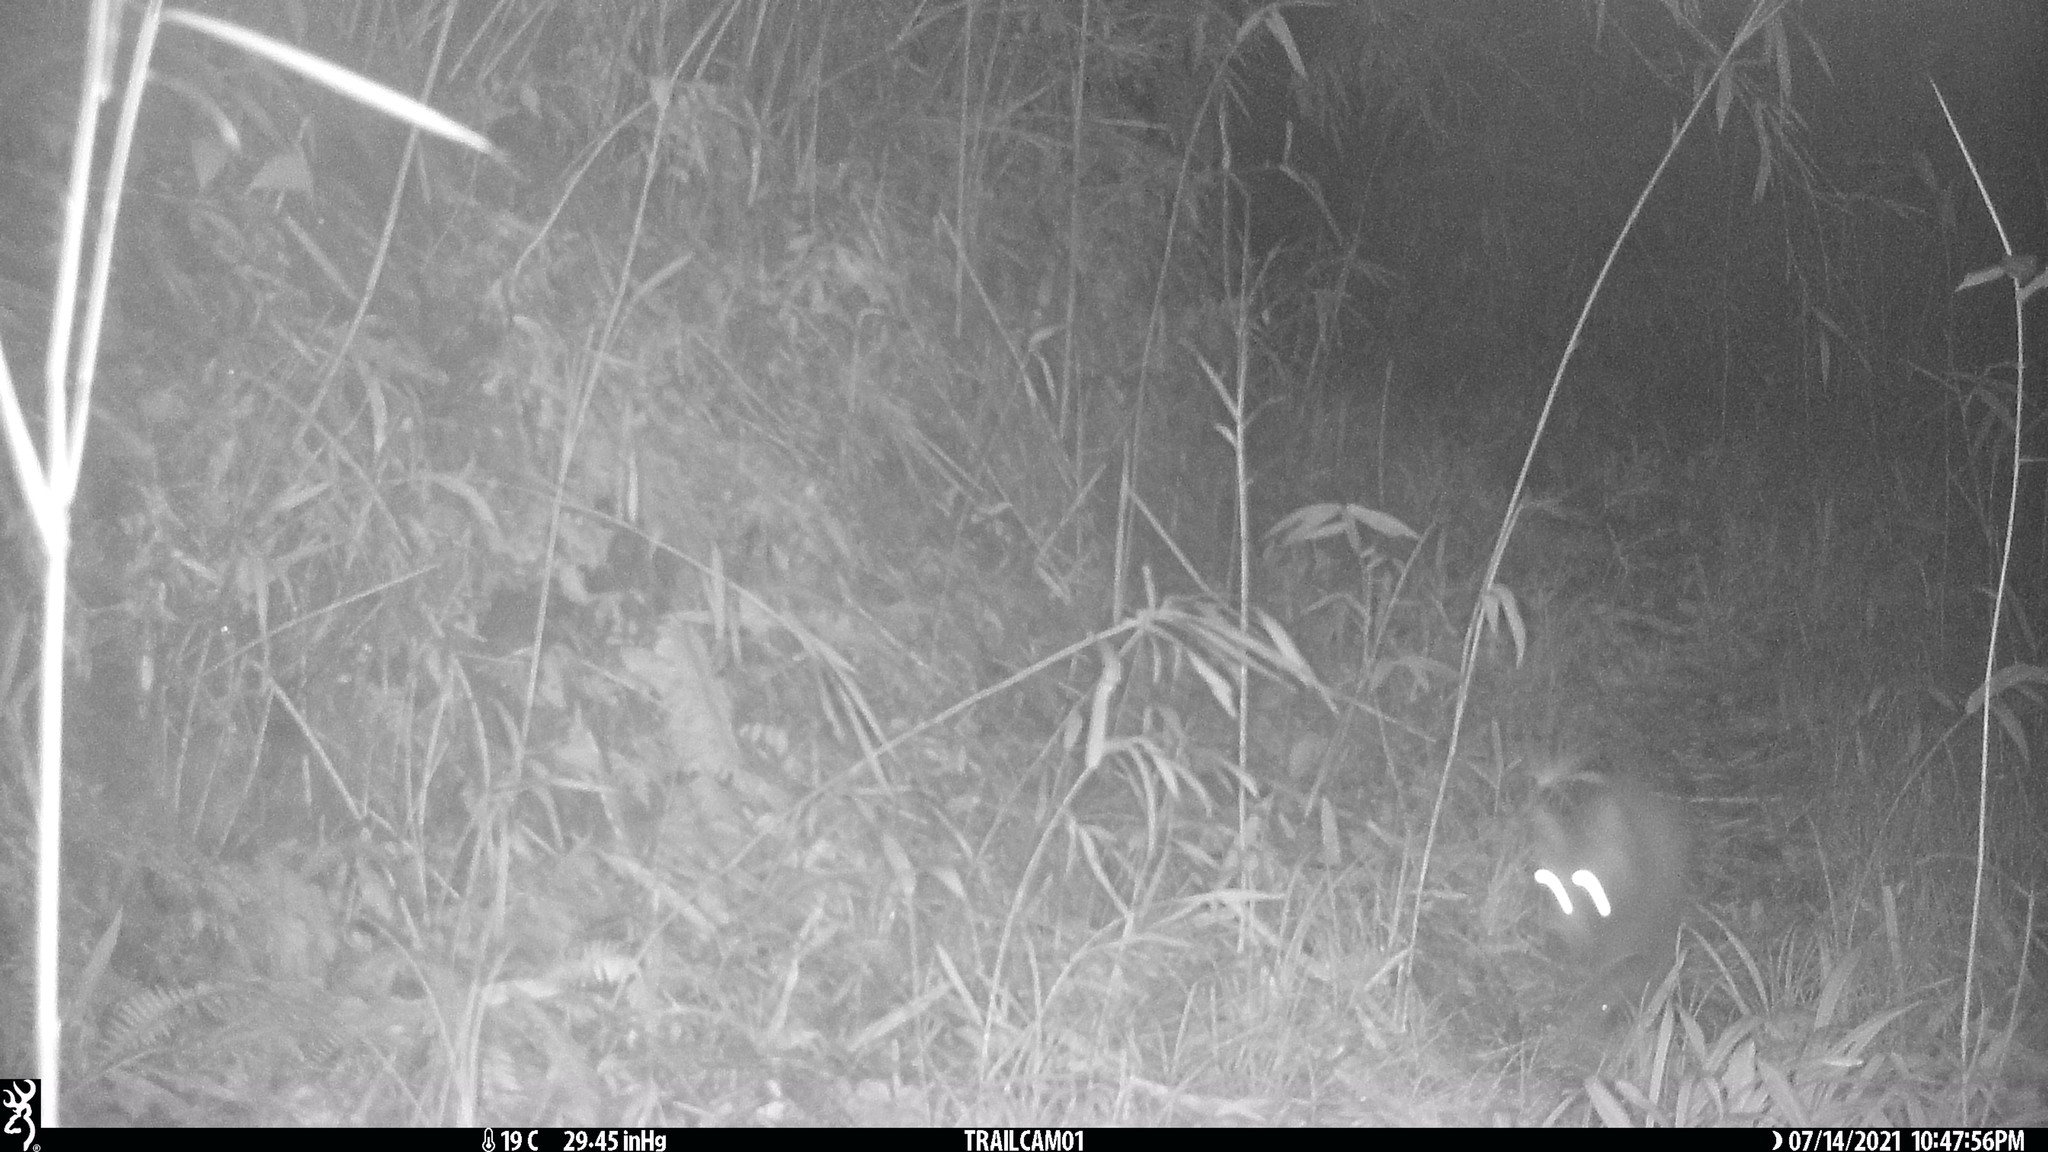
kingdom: Animalia
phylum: Chordata
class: Mammalia
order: Carnivora
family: Canidae
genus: Nyctereutes
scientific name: Nyctereutes
